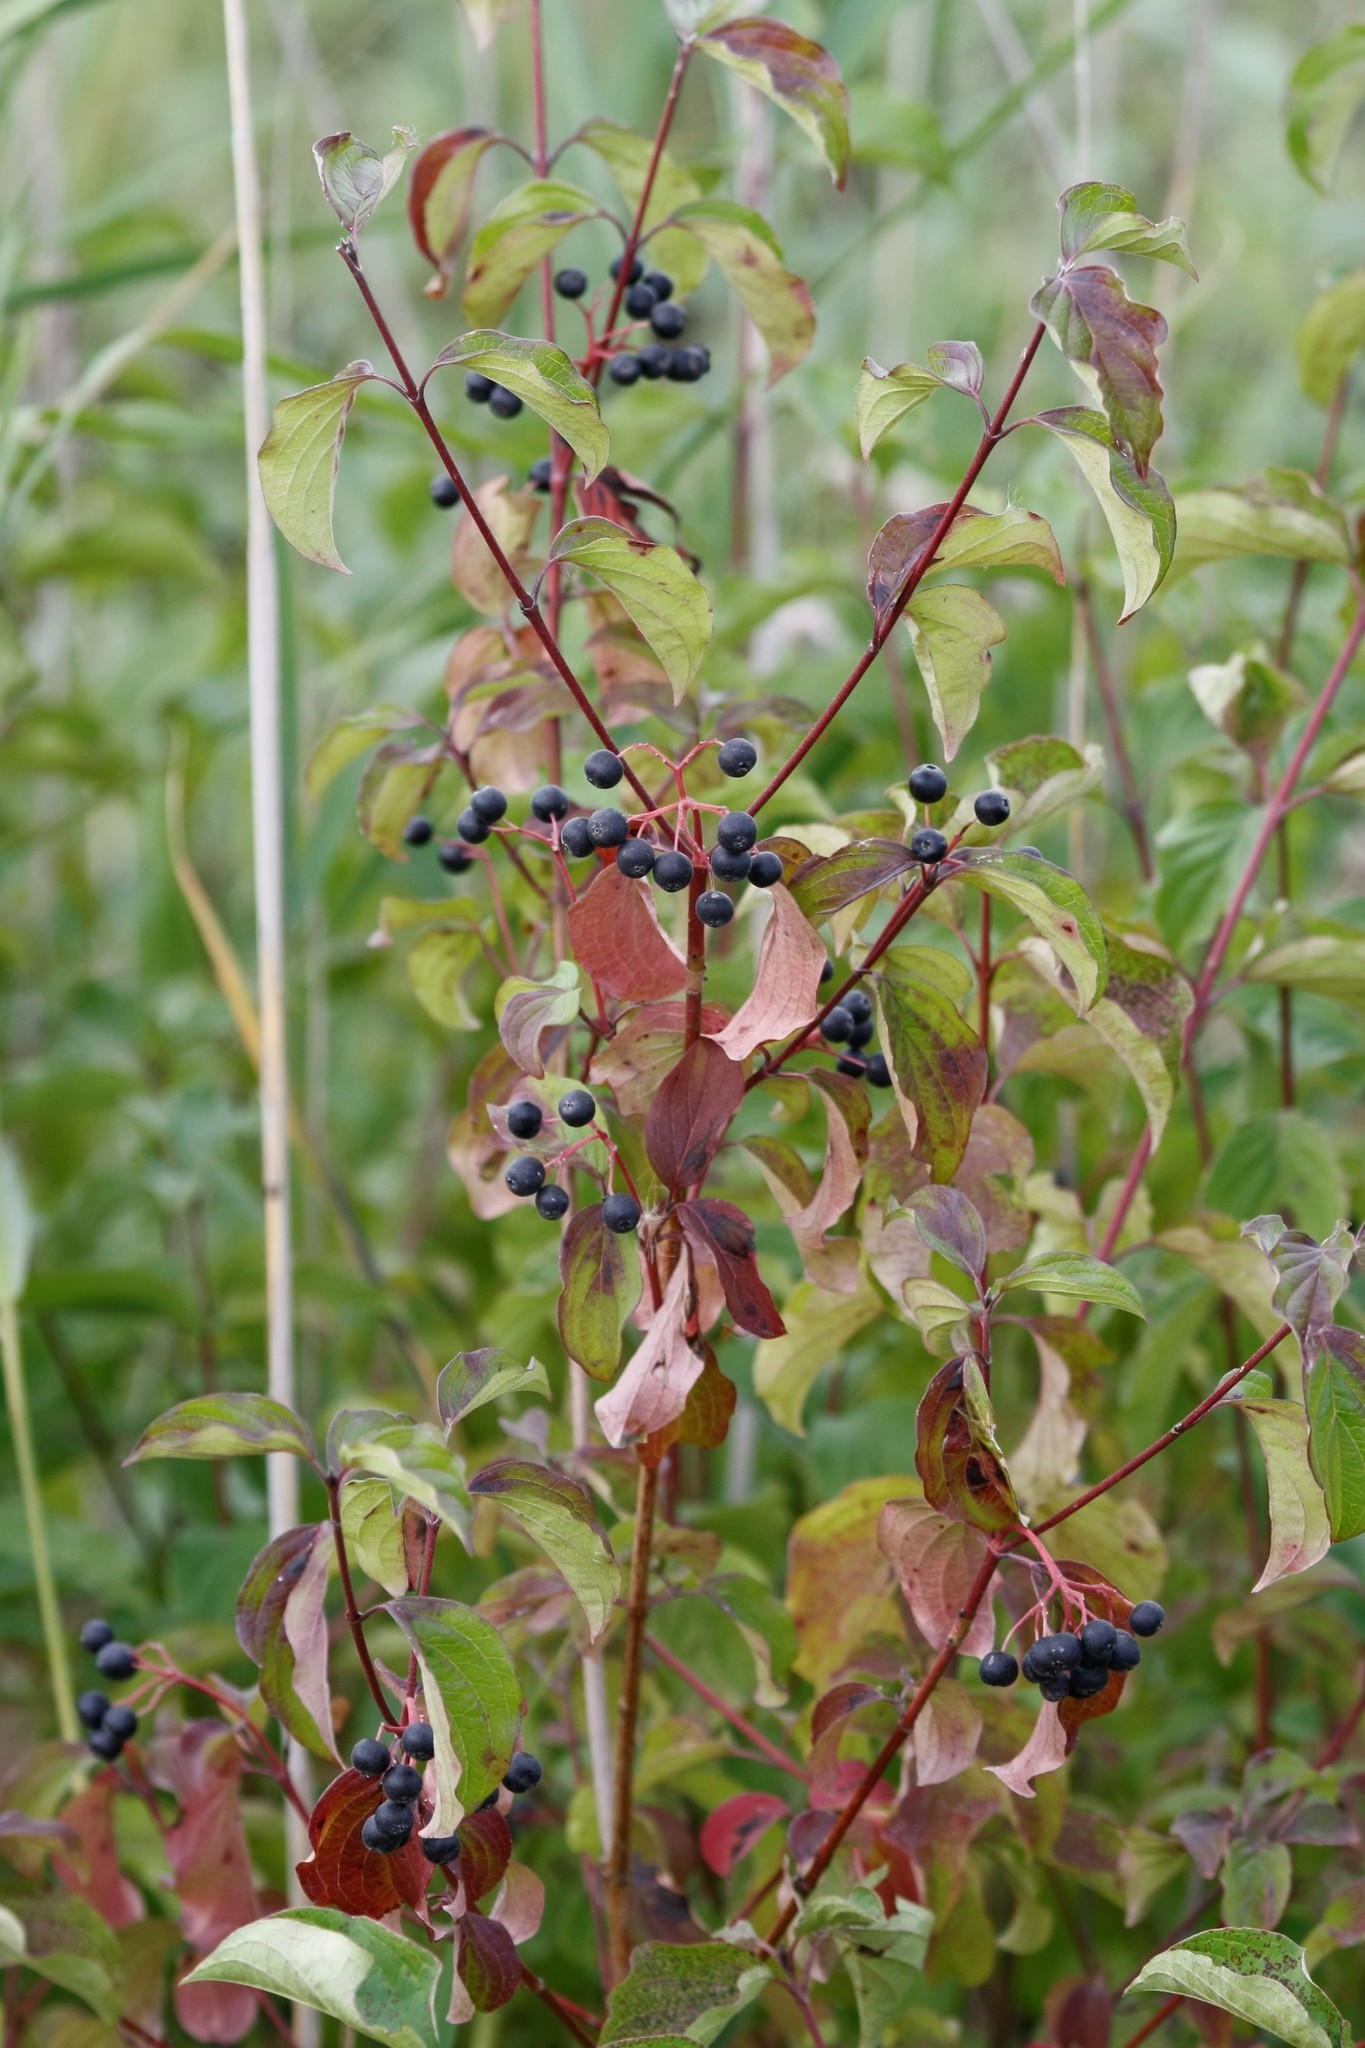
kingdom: Plantae
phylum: Tracheophyta
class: Magnoliopsida
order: Cornales
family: Cornaceae
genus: Cornus
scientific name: Cornus sanguinea
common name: Dogwood
